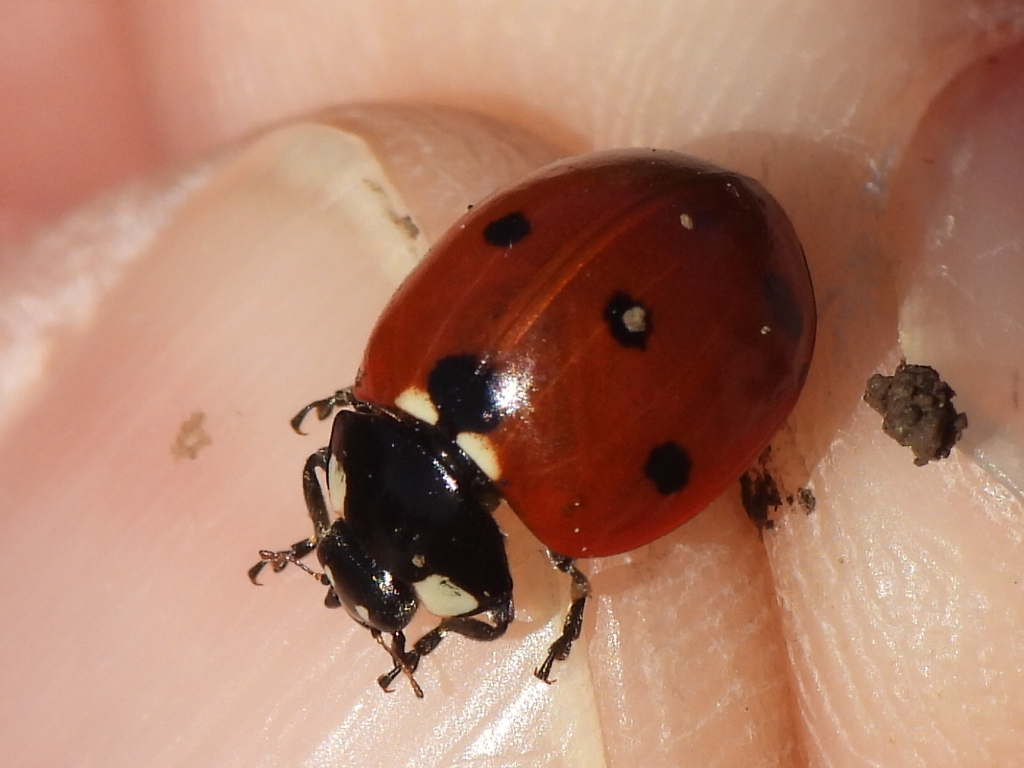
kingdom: Animalia
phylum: Arthropoda
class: Insecta
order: Coleoptera
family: Coccinellidae
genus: Coccinella
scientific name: Coccinella septempunctata
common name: Sevenspotted lady beetle
